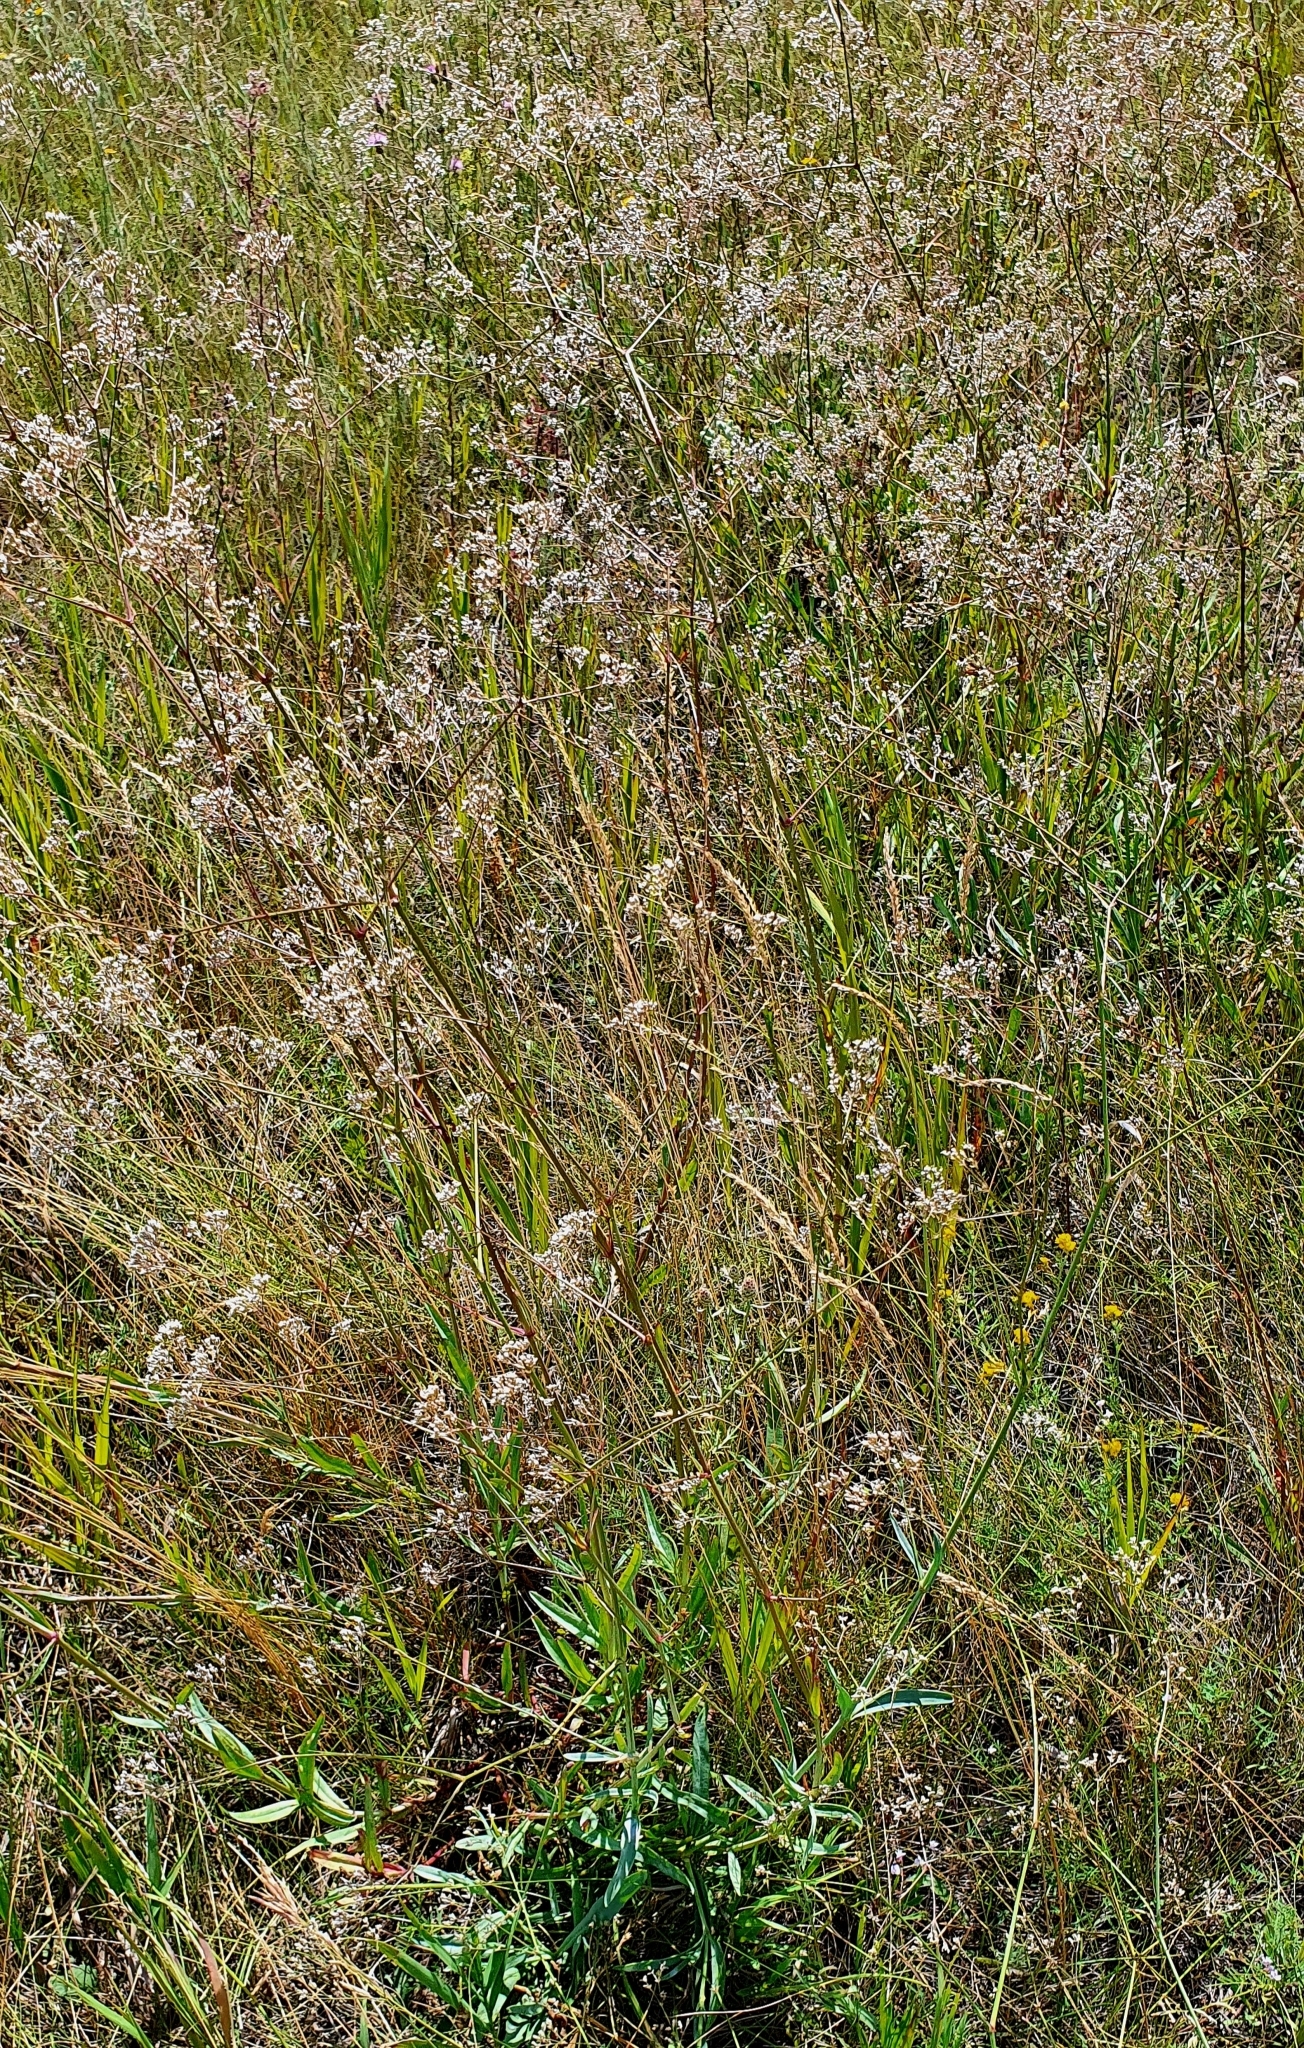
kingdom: Plantae
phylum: Tracheophyta
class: Magnoliopsida
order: Caryophyllales
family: Caryophyllaceae
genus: Gypsophila
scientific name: Gypsophila altissima
